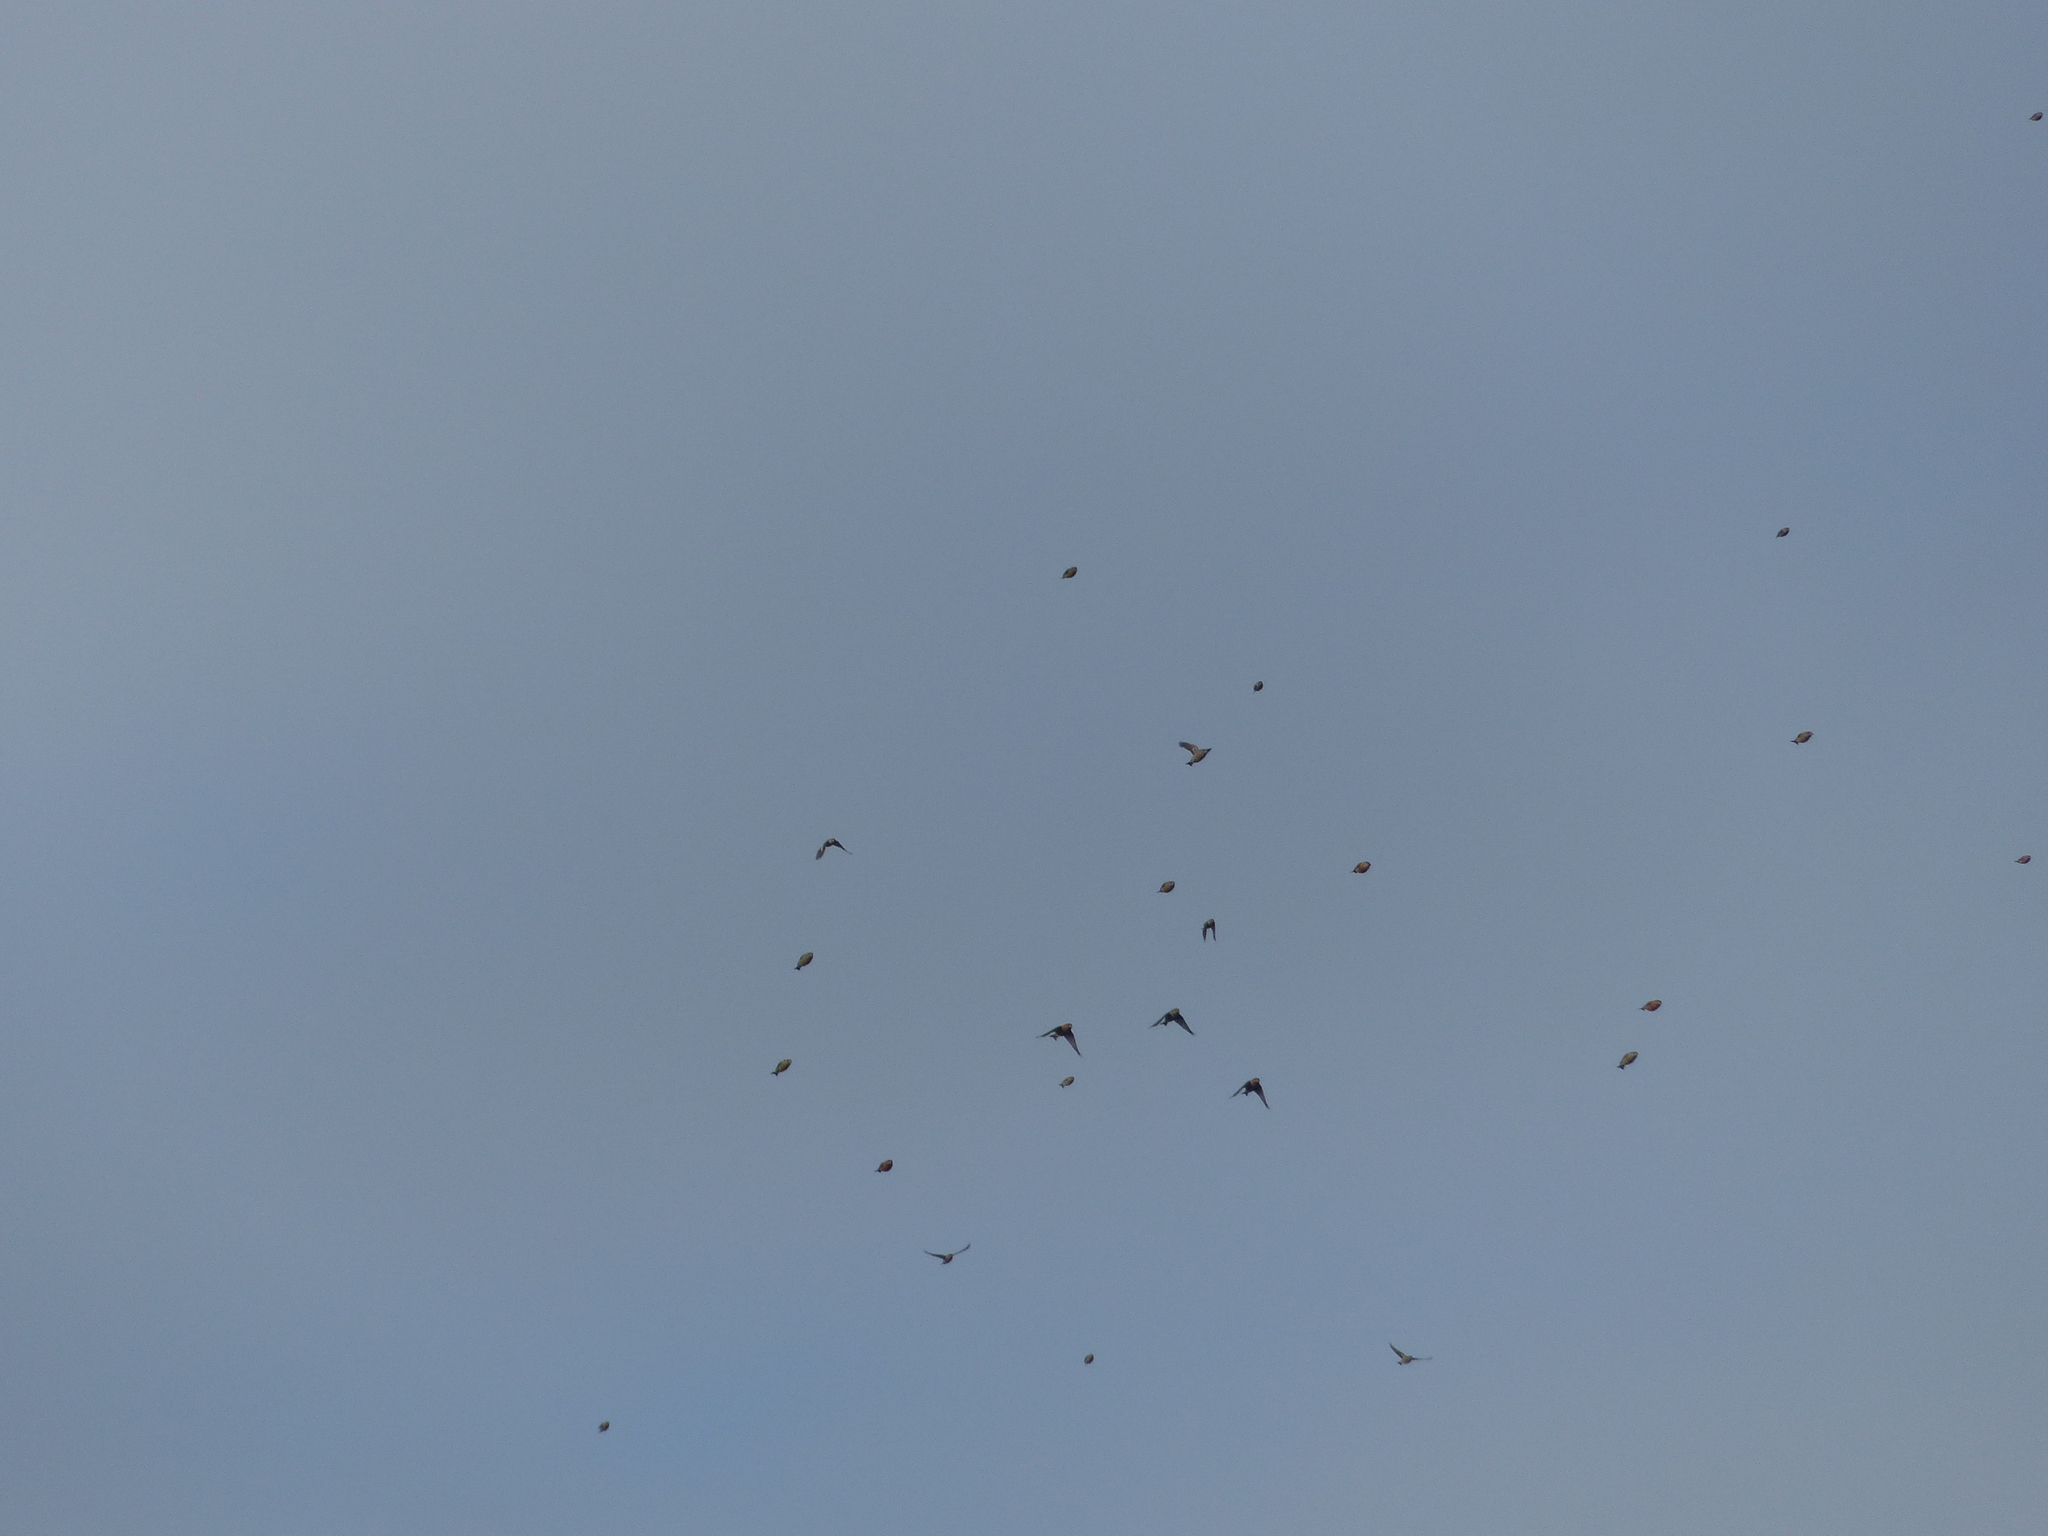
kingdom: Animalia
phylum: Chordata
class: Aves
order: Passeriformes
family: Fringillidae
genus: Loxia
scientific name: Loxia curvirostra
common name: Red crossbill
